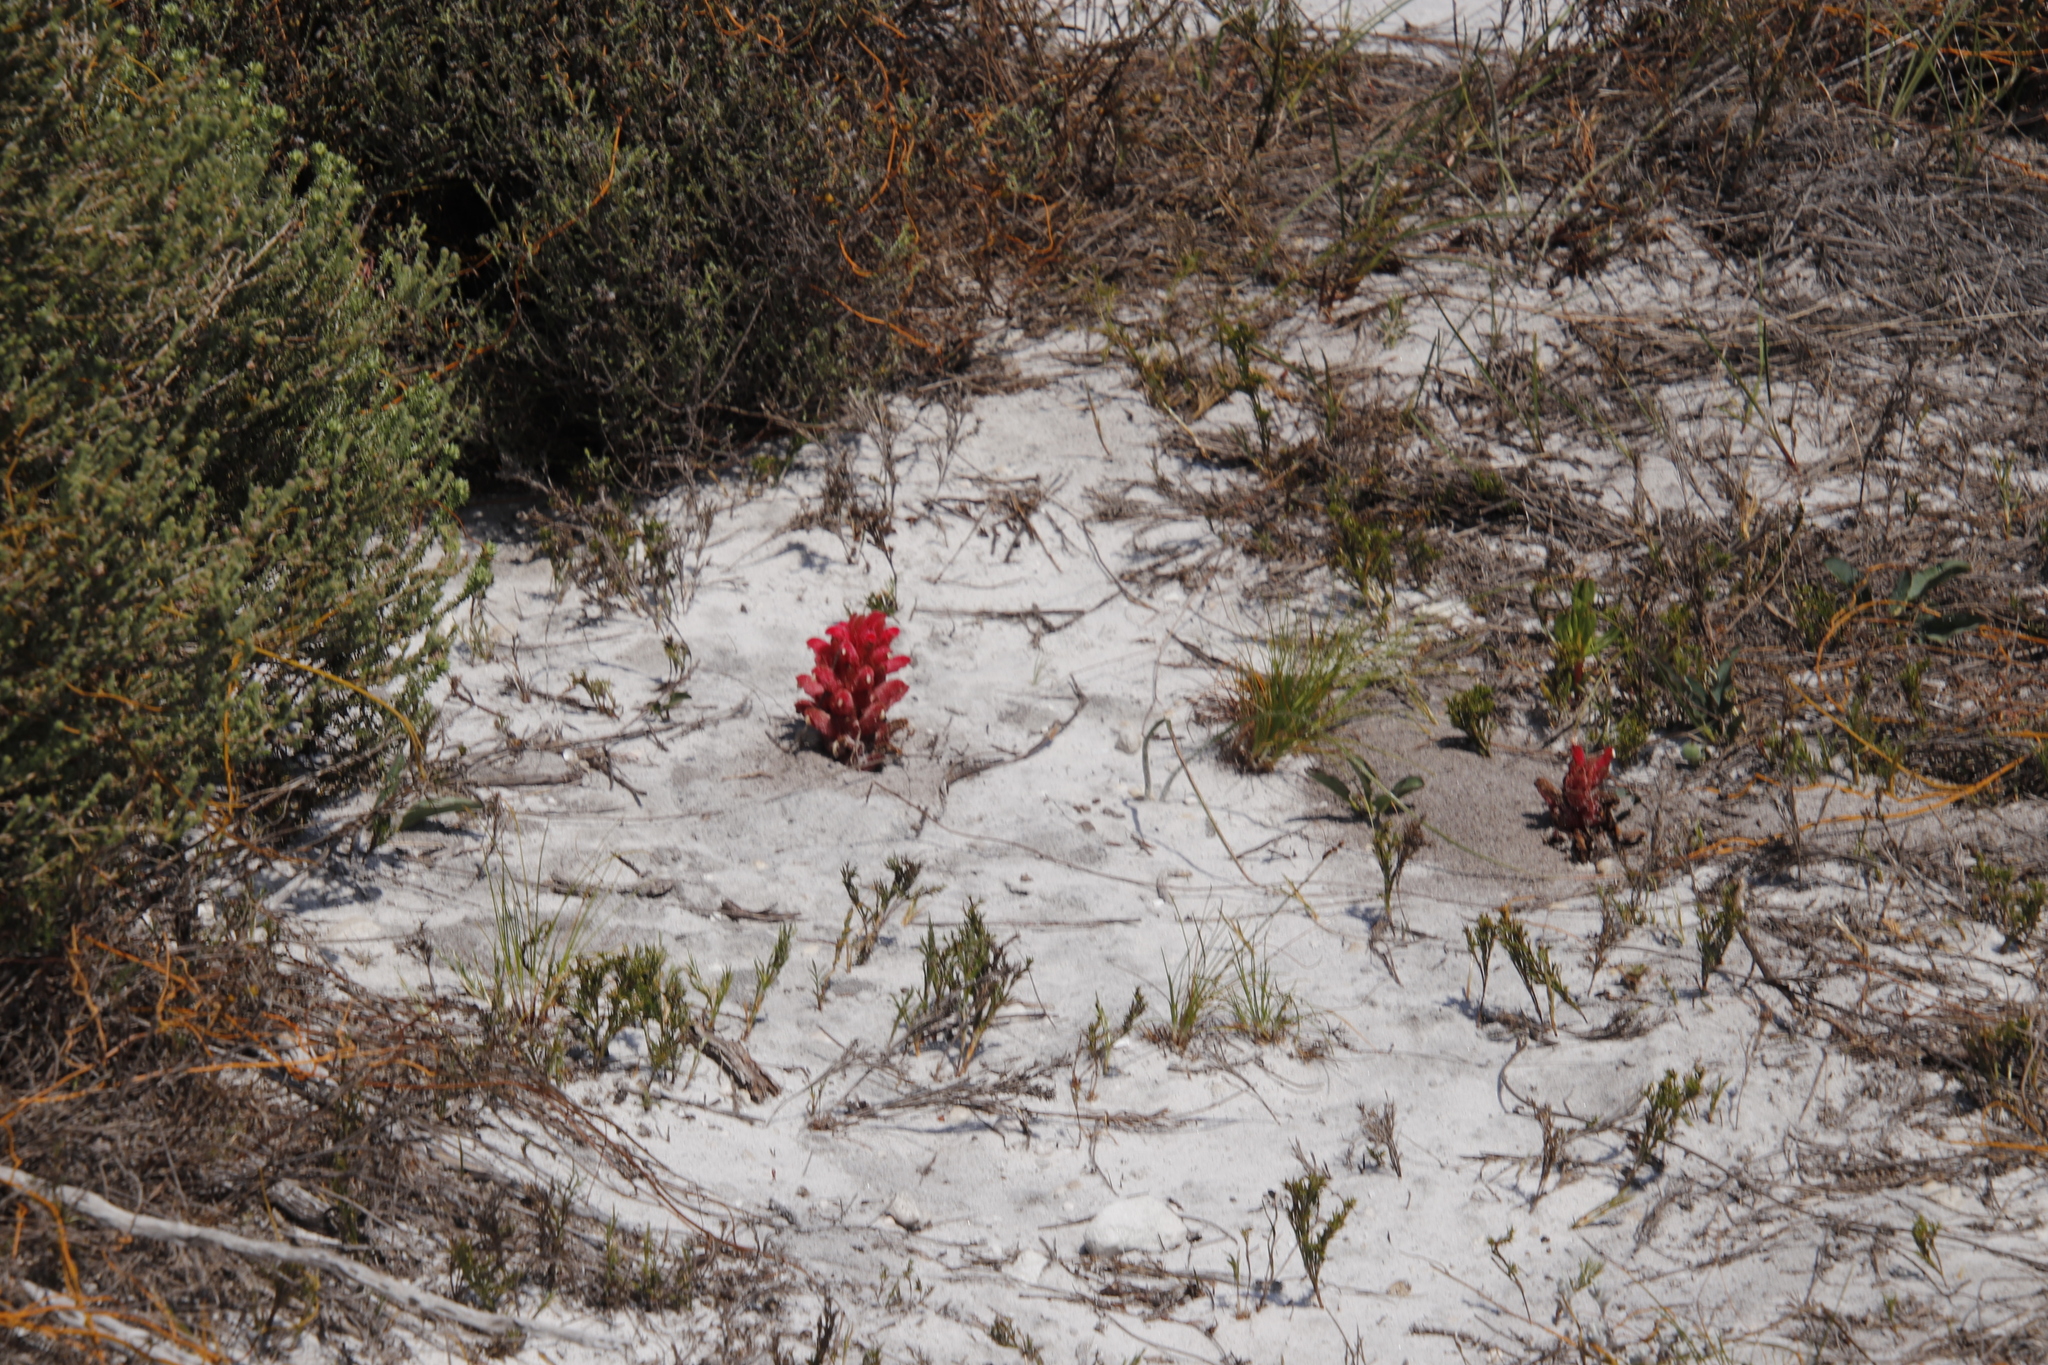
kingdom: Plantae
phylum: Tracheophyta
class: Magnoliopsida
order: Lamiales
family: Orobanchaceae
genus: Hyobanche
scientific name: Hyobanche sanguinea
